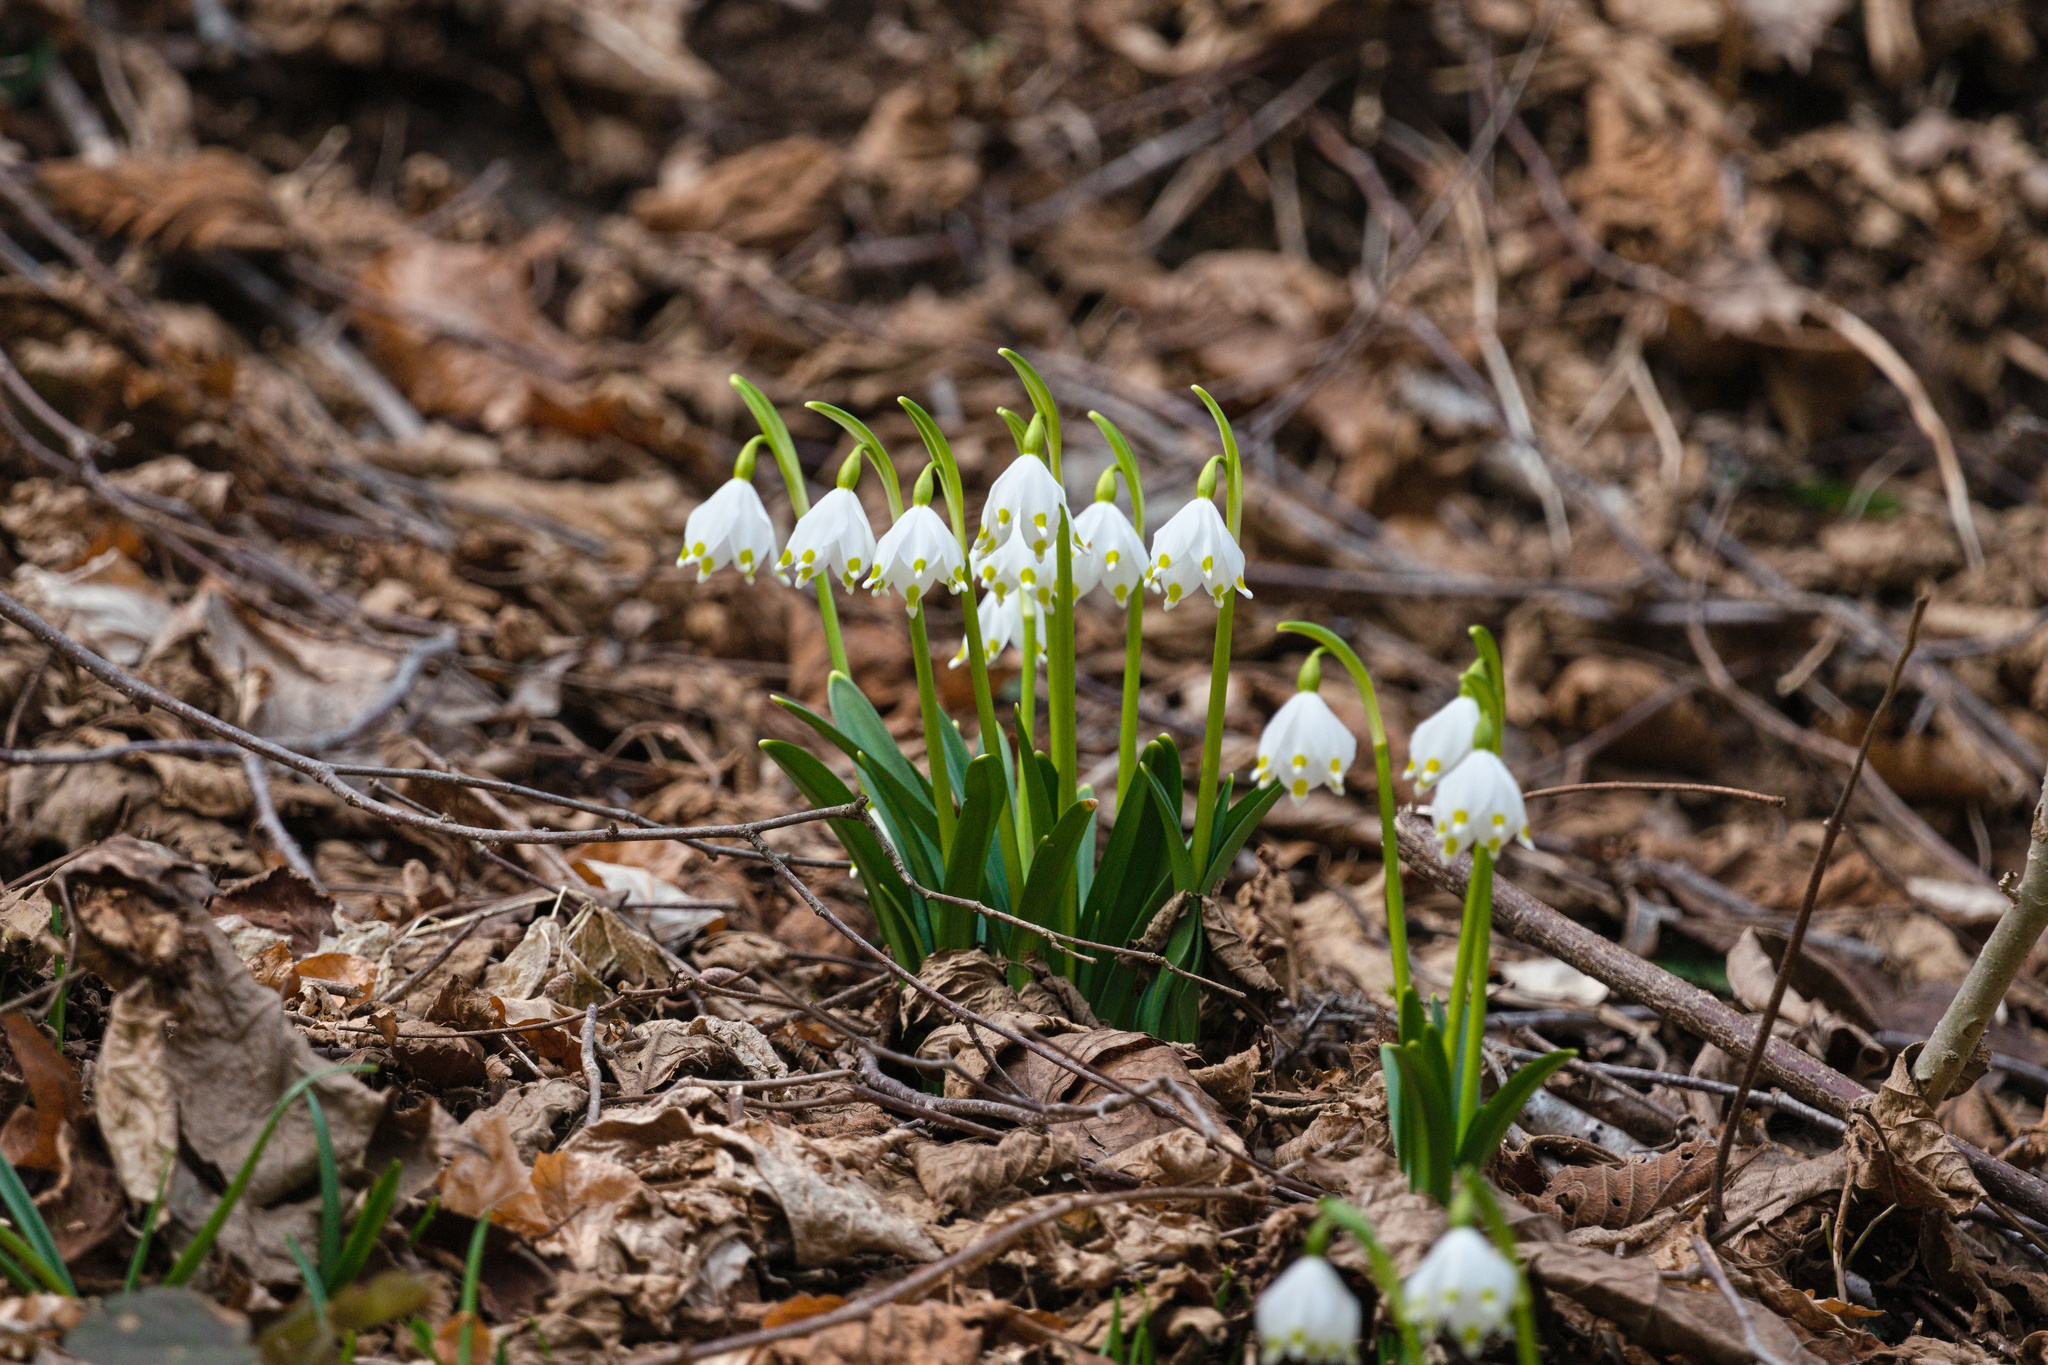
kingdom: Plantae
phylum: Tracheophyta
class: Liliopsida
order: Asparagales
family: Amaryllidaceae
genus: Leucojum
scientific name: Leucojum vernum
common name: Spring snowflake
